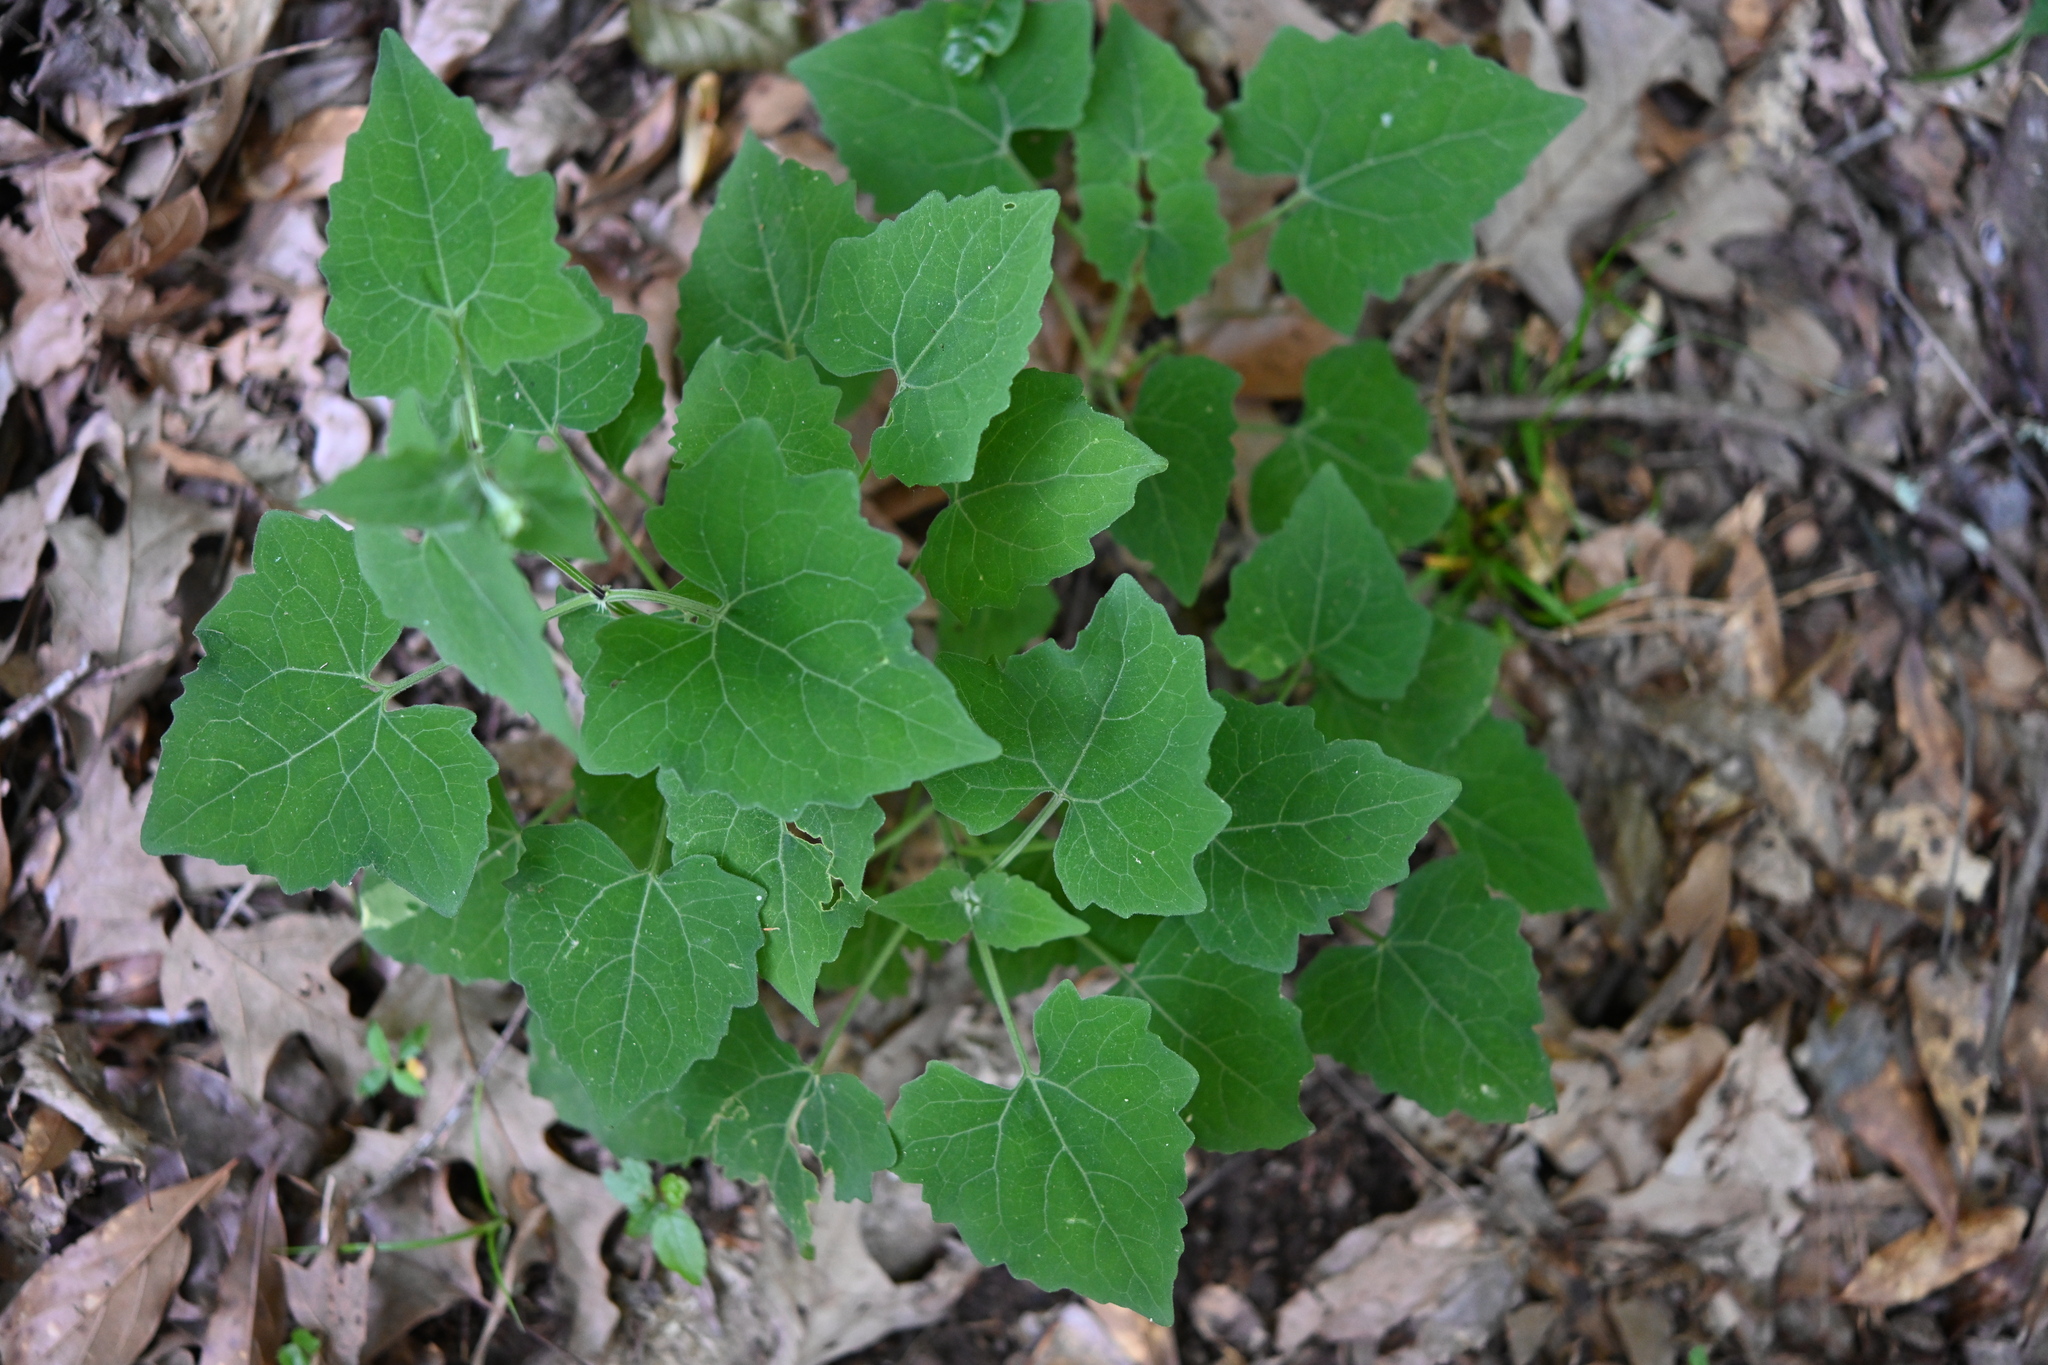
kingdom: Plantae
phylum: Tracheophyta
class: Magnoliopsida
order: Asterales
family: Asteraceae
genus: Mikania
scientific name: Mikania cordifolia
